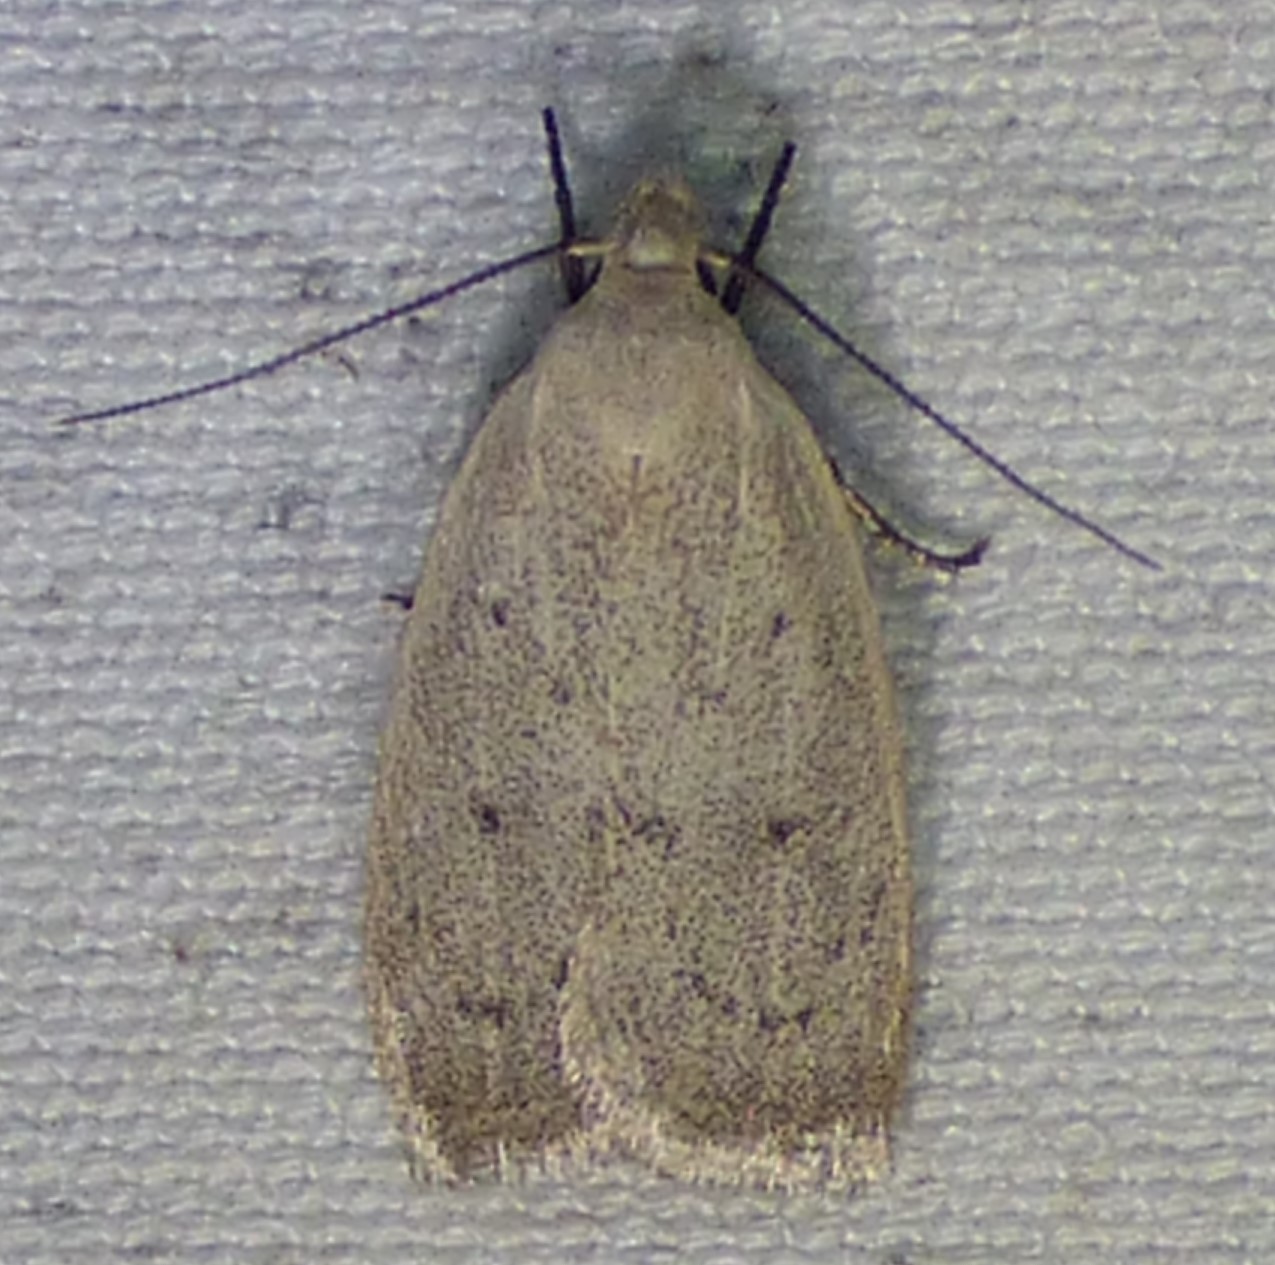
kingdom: Animalia
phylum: Arthropoda
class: Insecta
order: Lepidoptera
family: Oecophoridae
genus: Inga
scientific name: Inga cretacea
